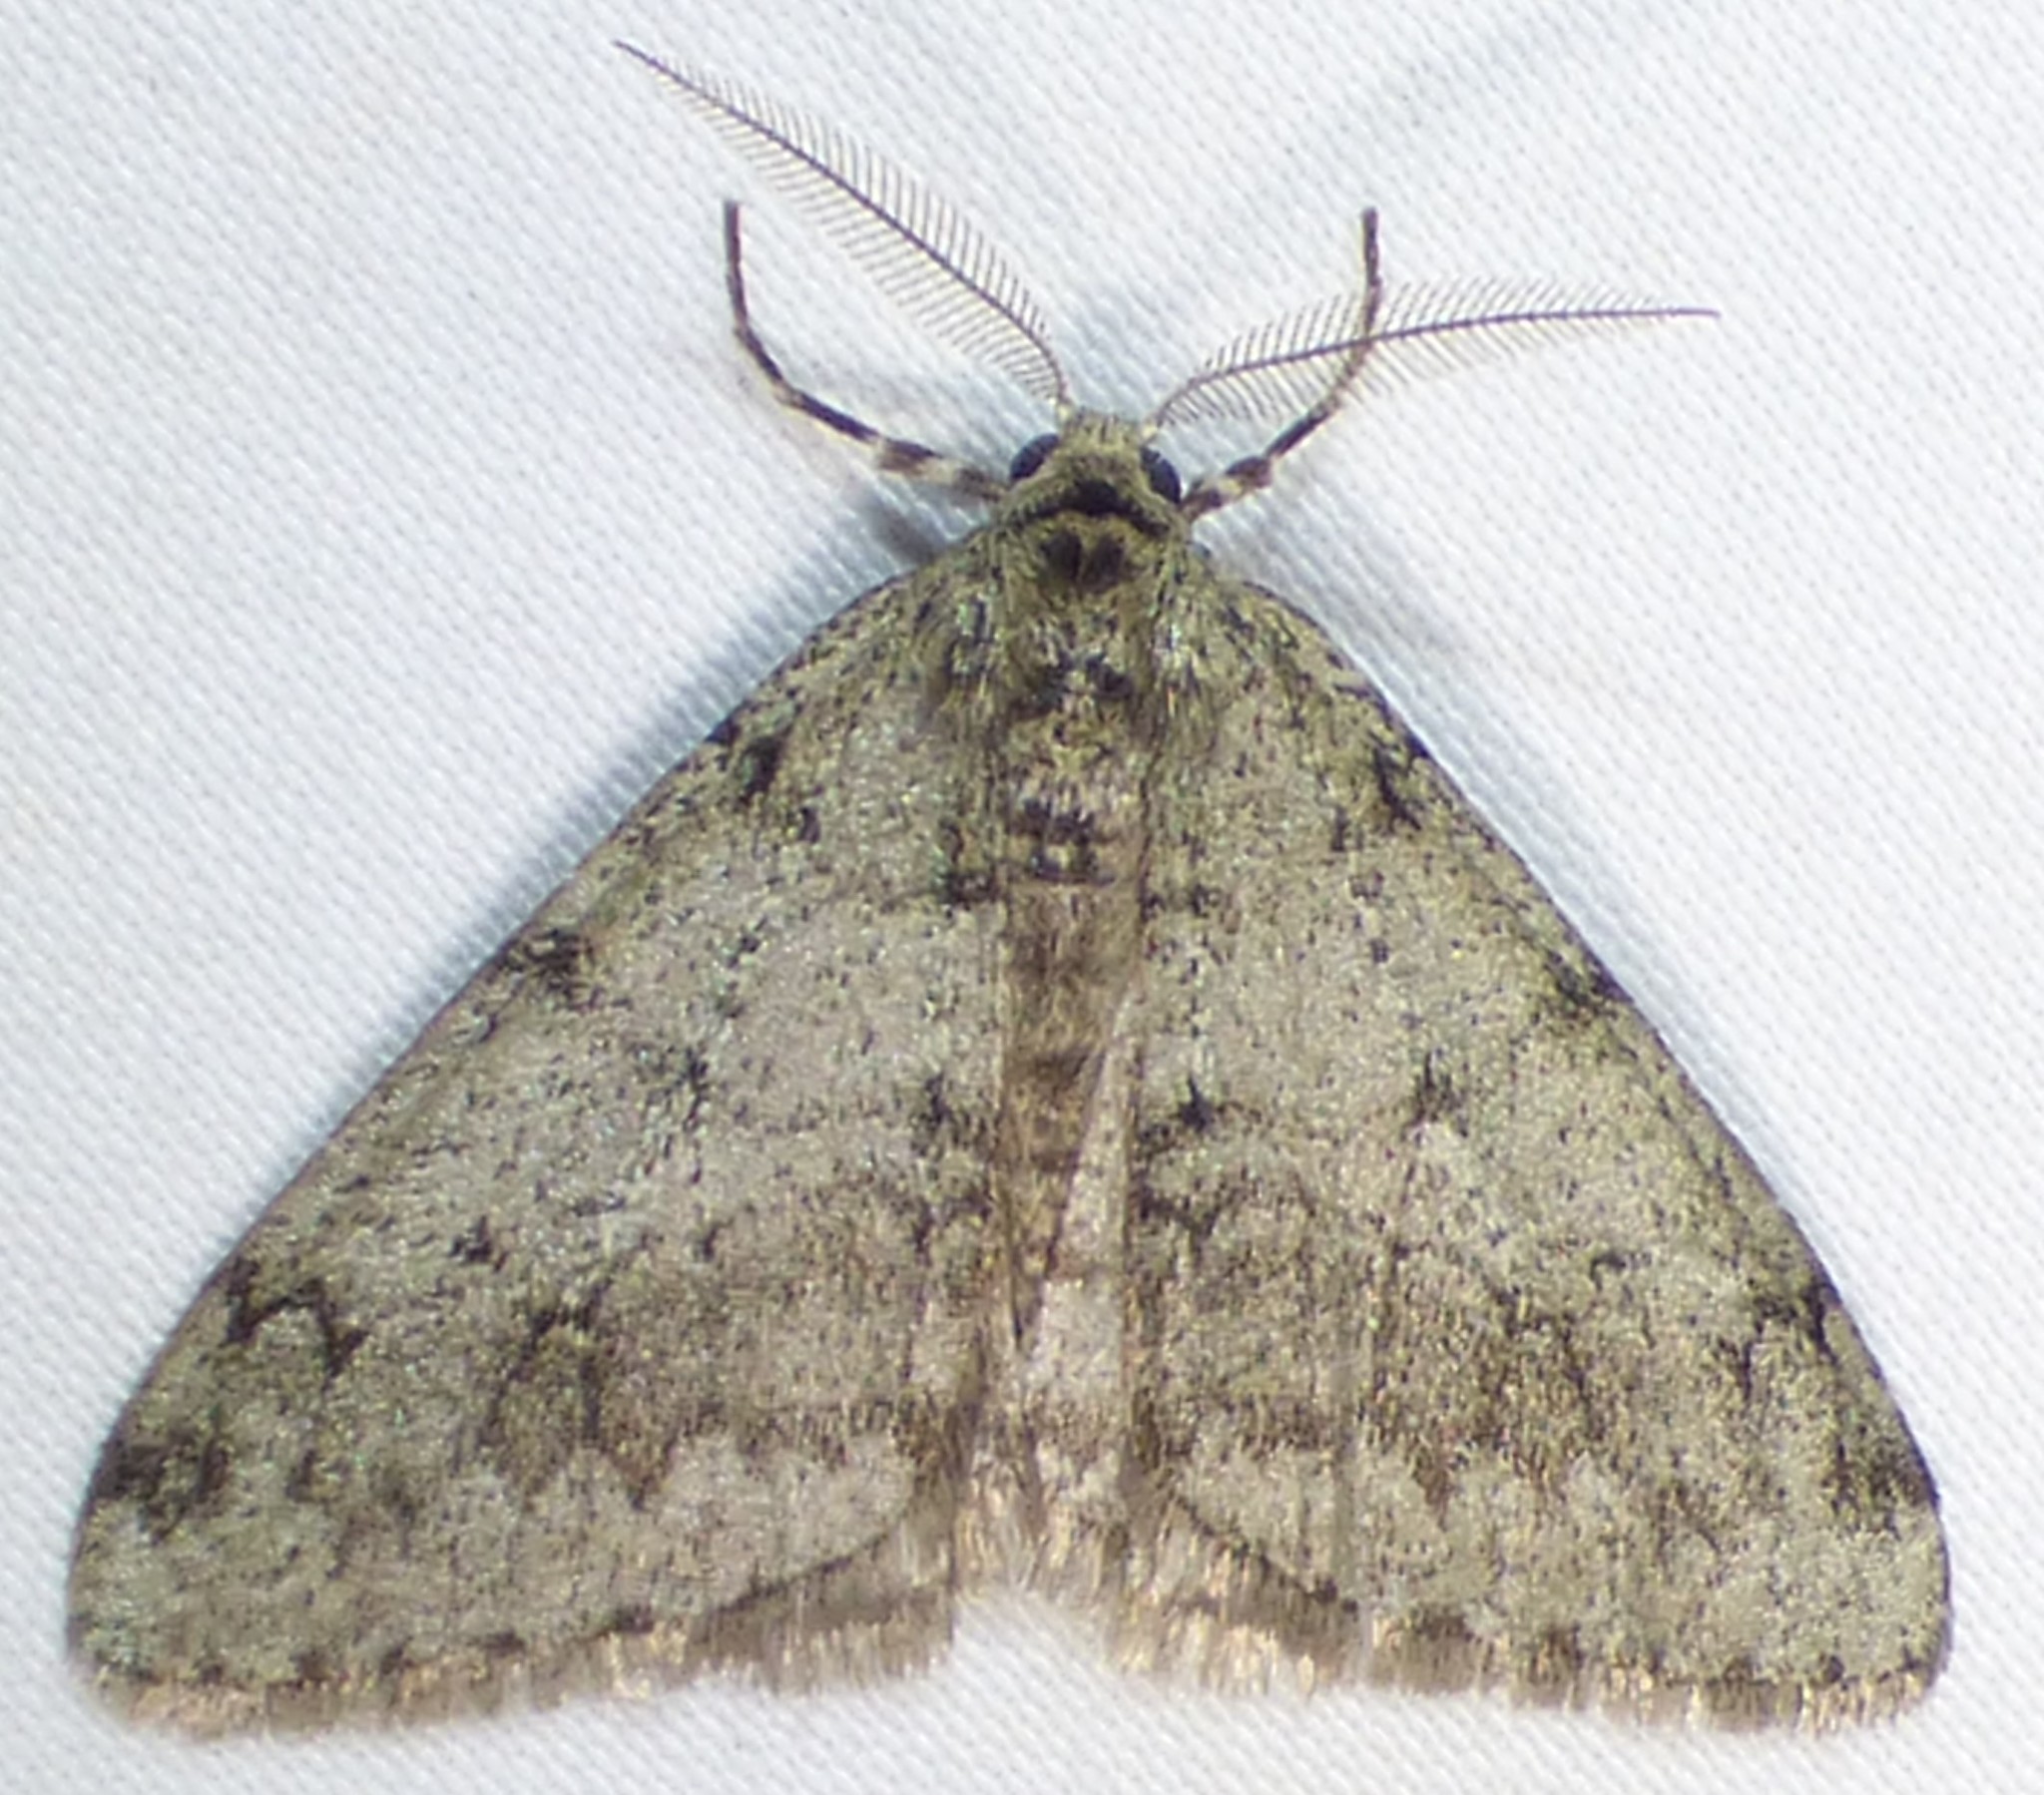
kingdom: Animalia
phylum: Arthropoda
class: Insecta
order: Lepidoptera
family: Geometridae
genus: Phigalia
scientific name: Phigalia strigataria
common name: Small phigalia
